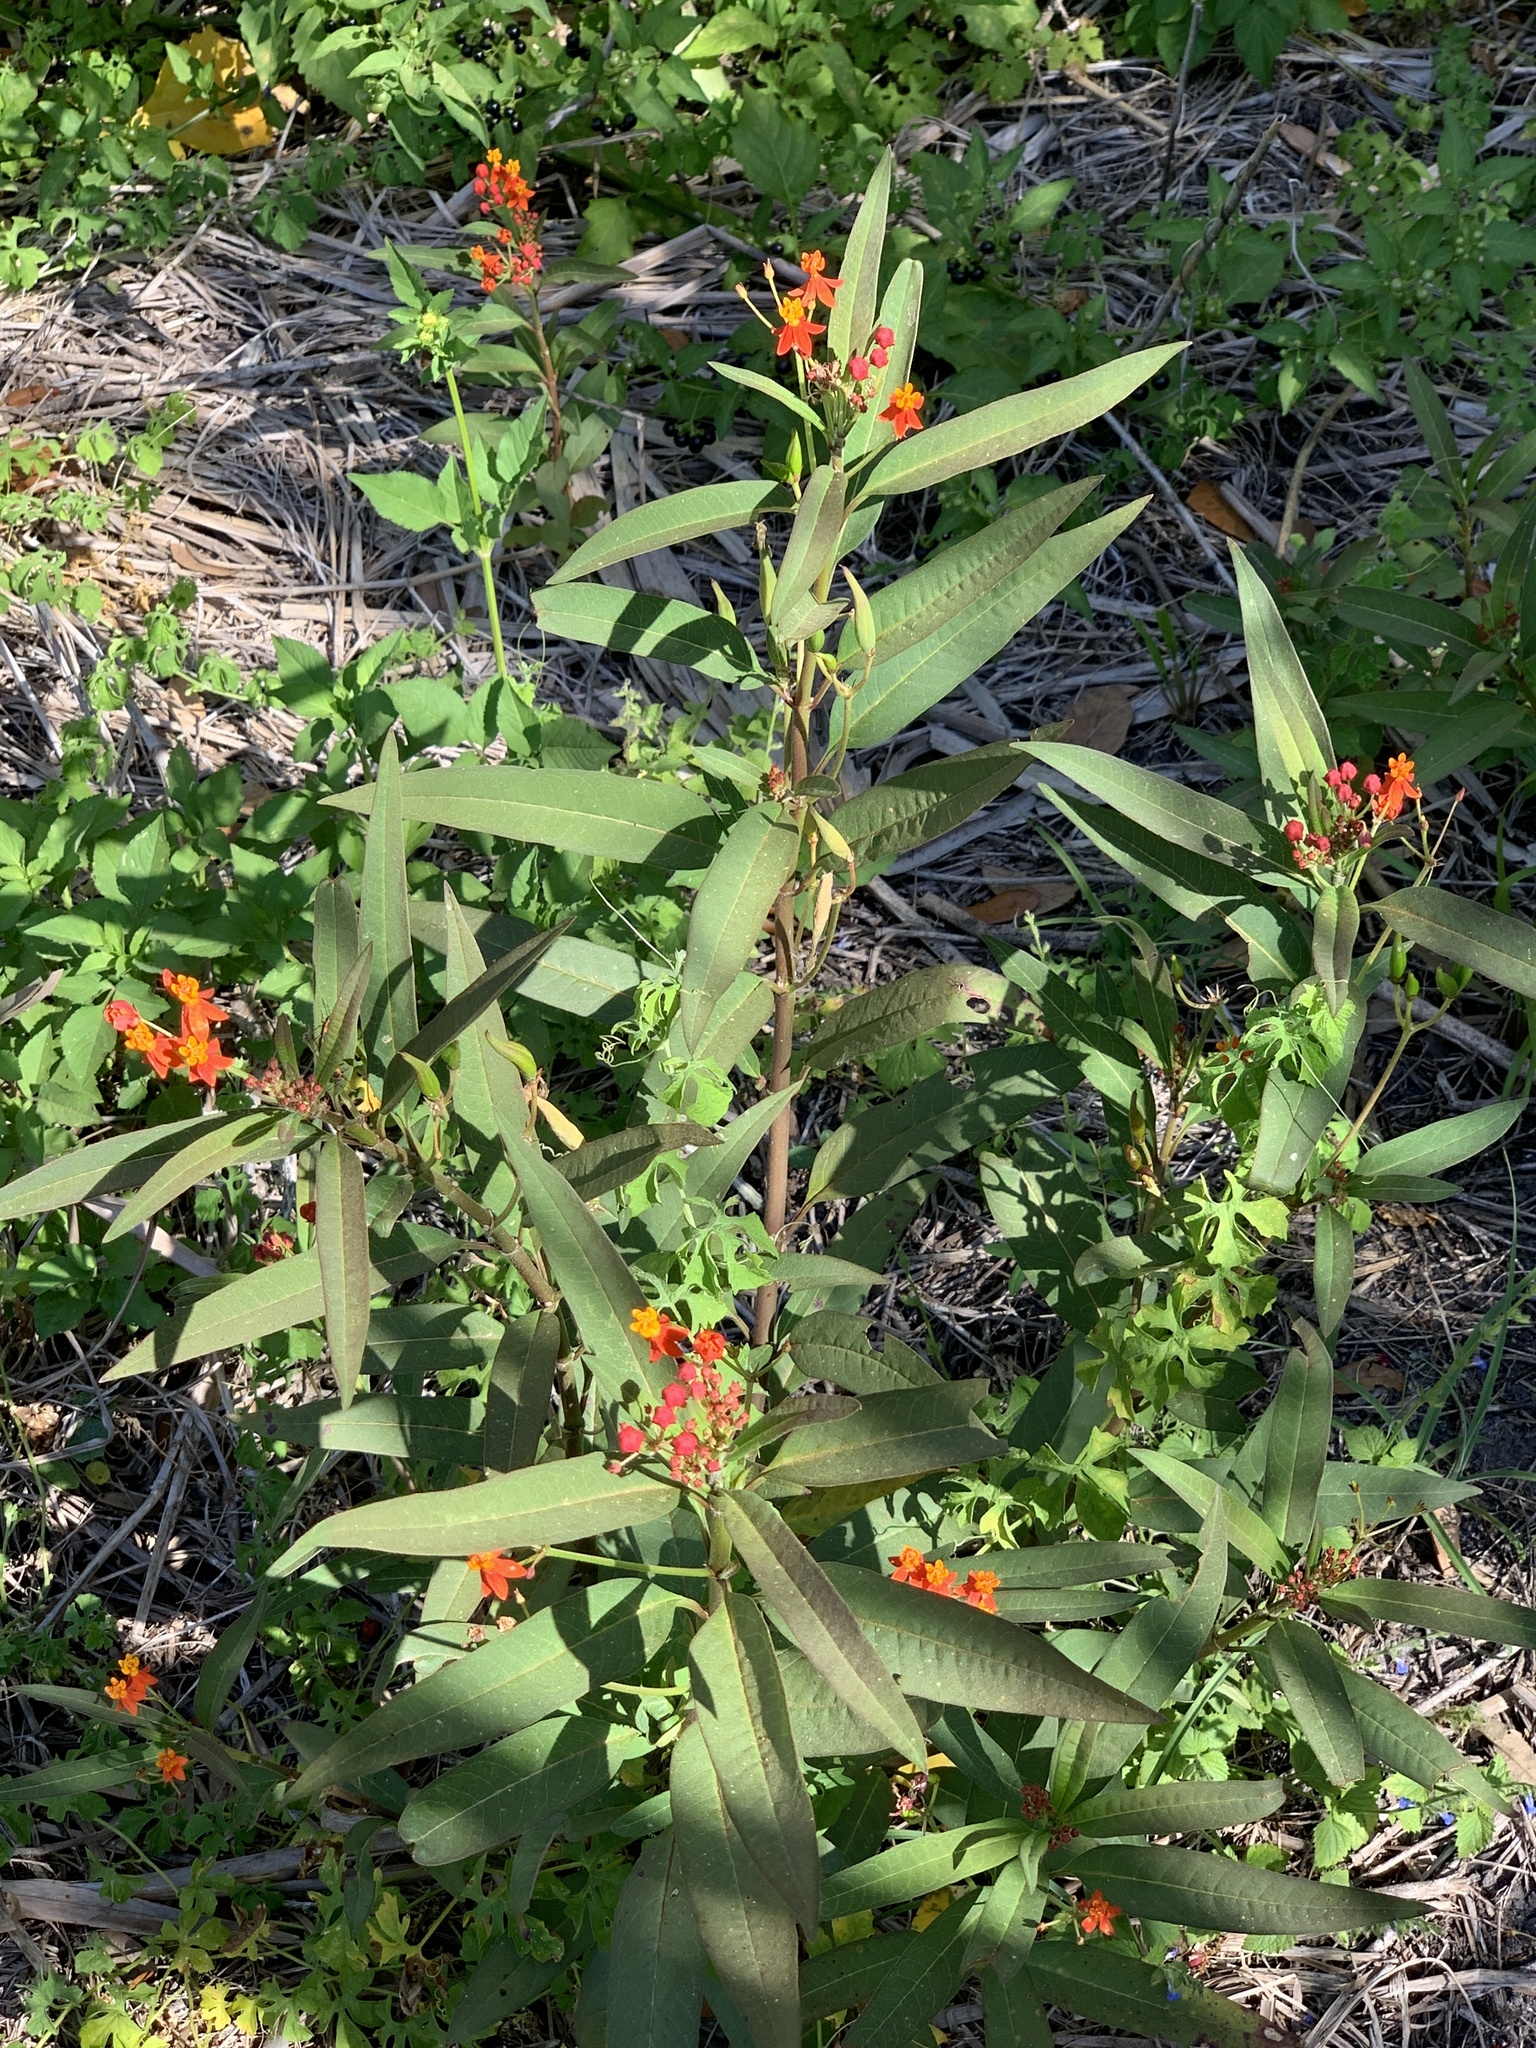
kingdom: Plantae
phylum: Tracheophyta
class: Magnoliopsida
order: Gentianales
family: Apocynaceae
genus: Asclepias
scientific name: Asclepias curassavica
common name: Bloodflower
